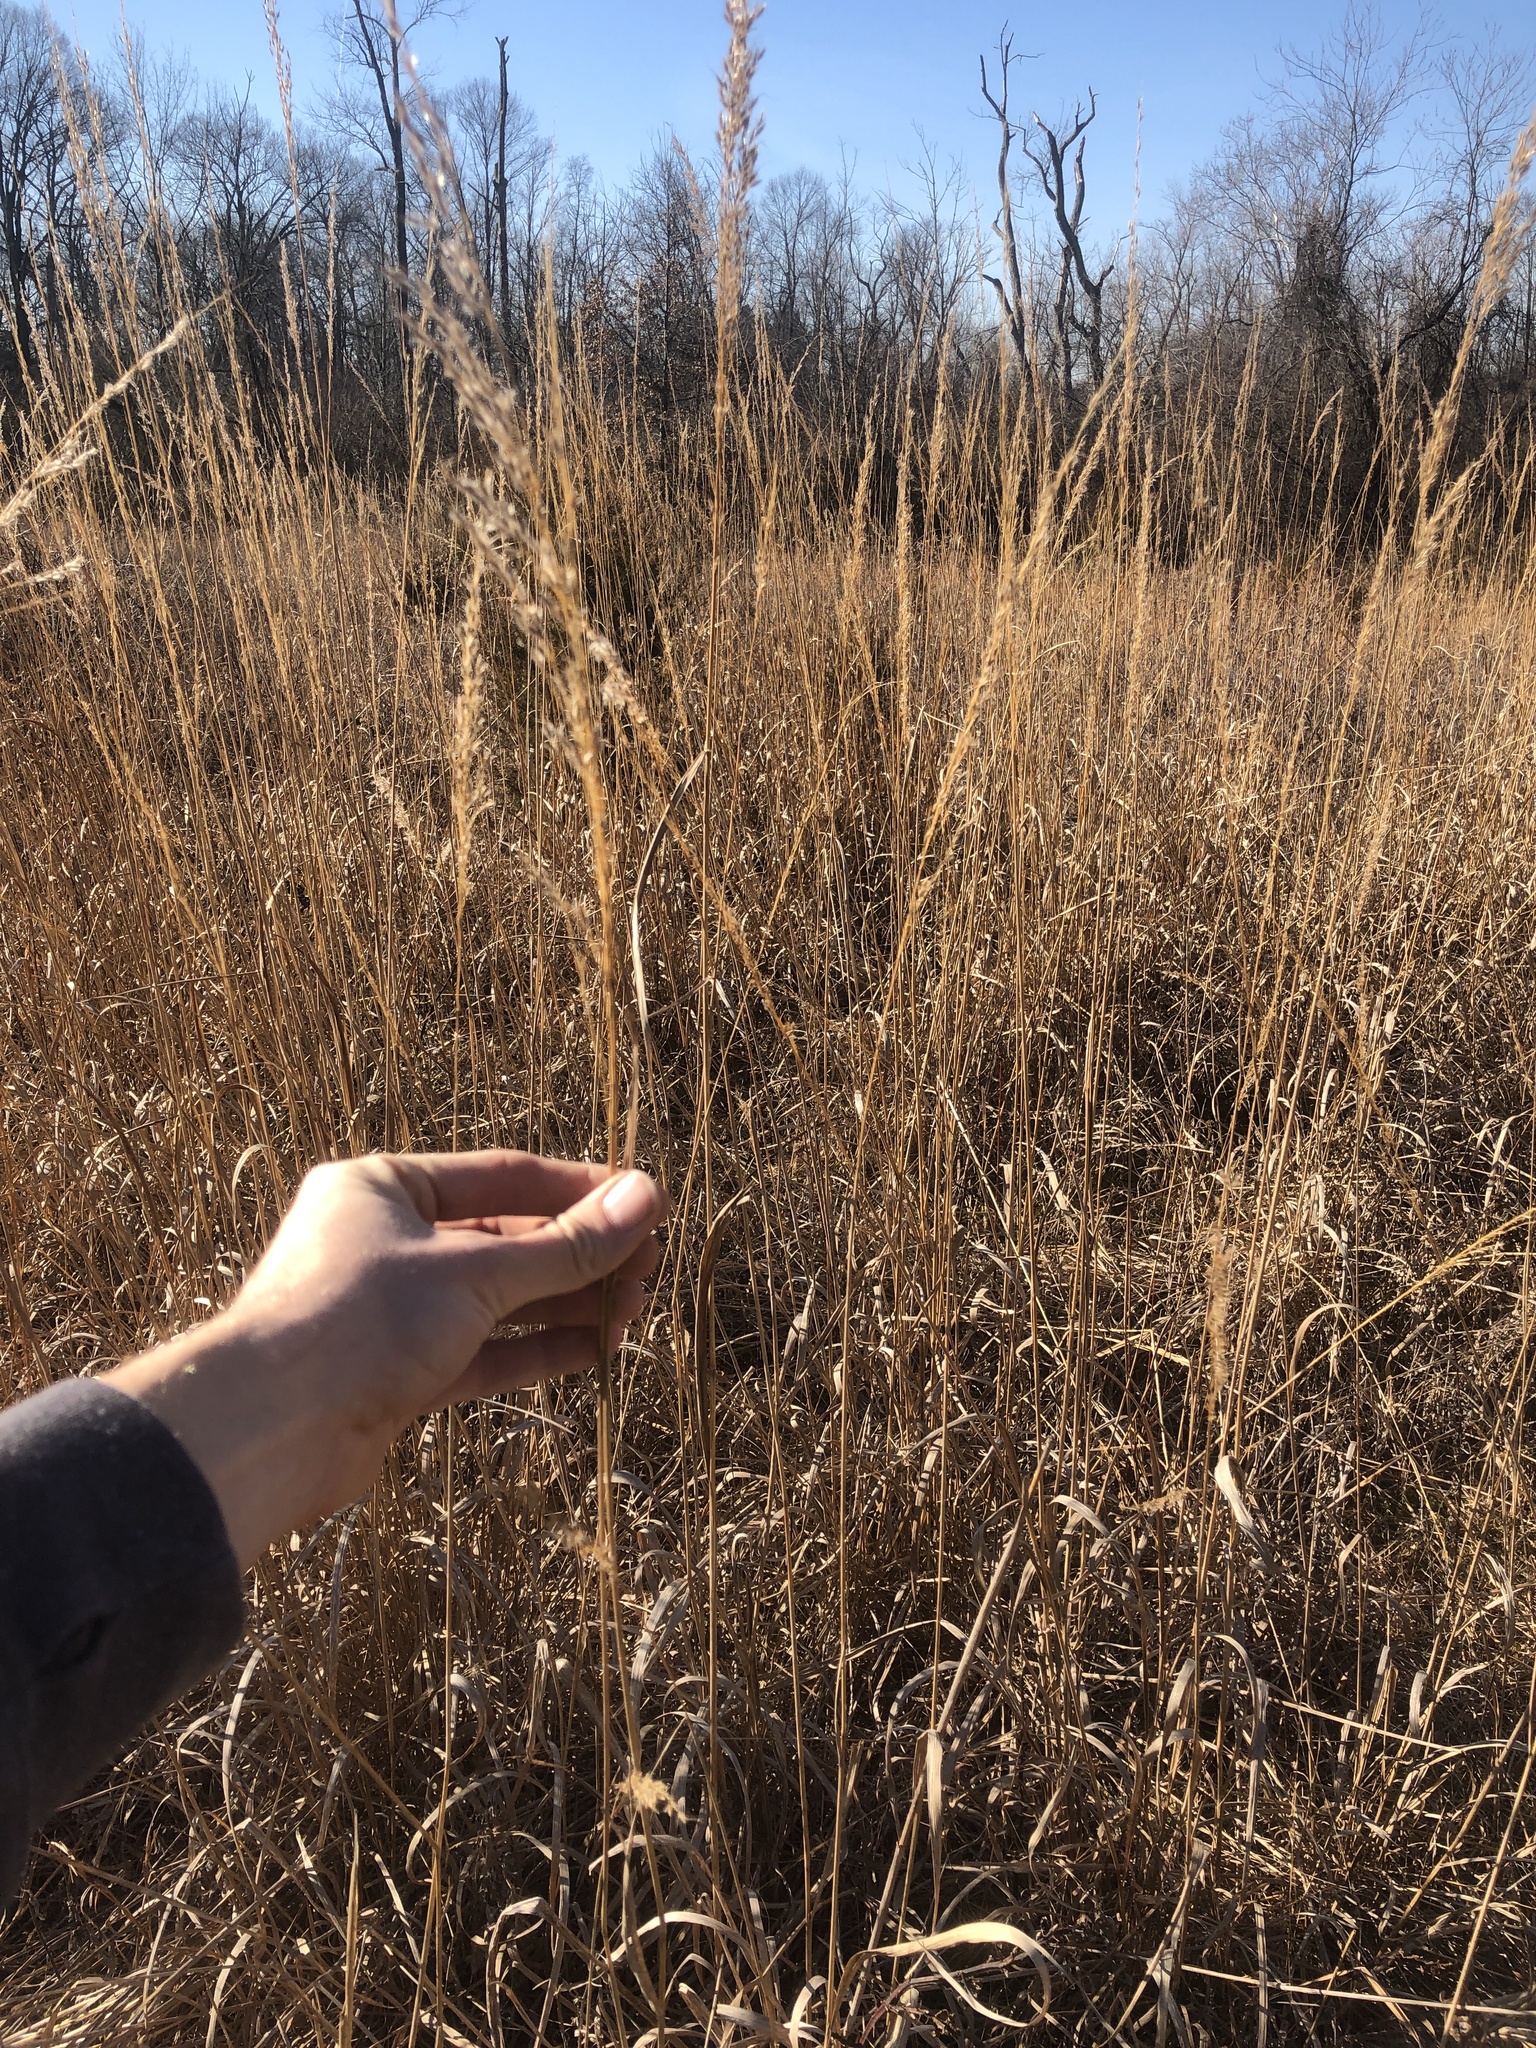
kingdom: Plantae
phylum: Tracheophyta
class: Liliopsida
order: Poales
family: Poaceae
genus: Sorghastrum
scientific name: Sorghastrum nutans
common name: Indian grass
